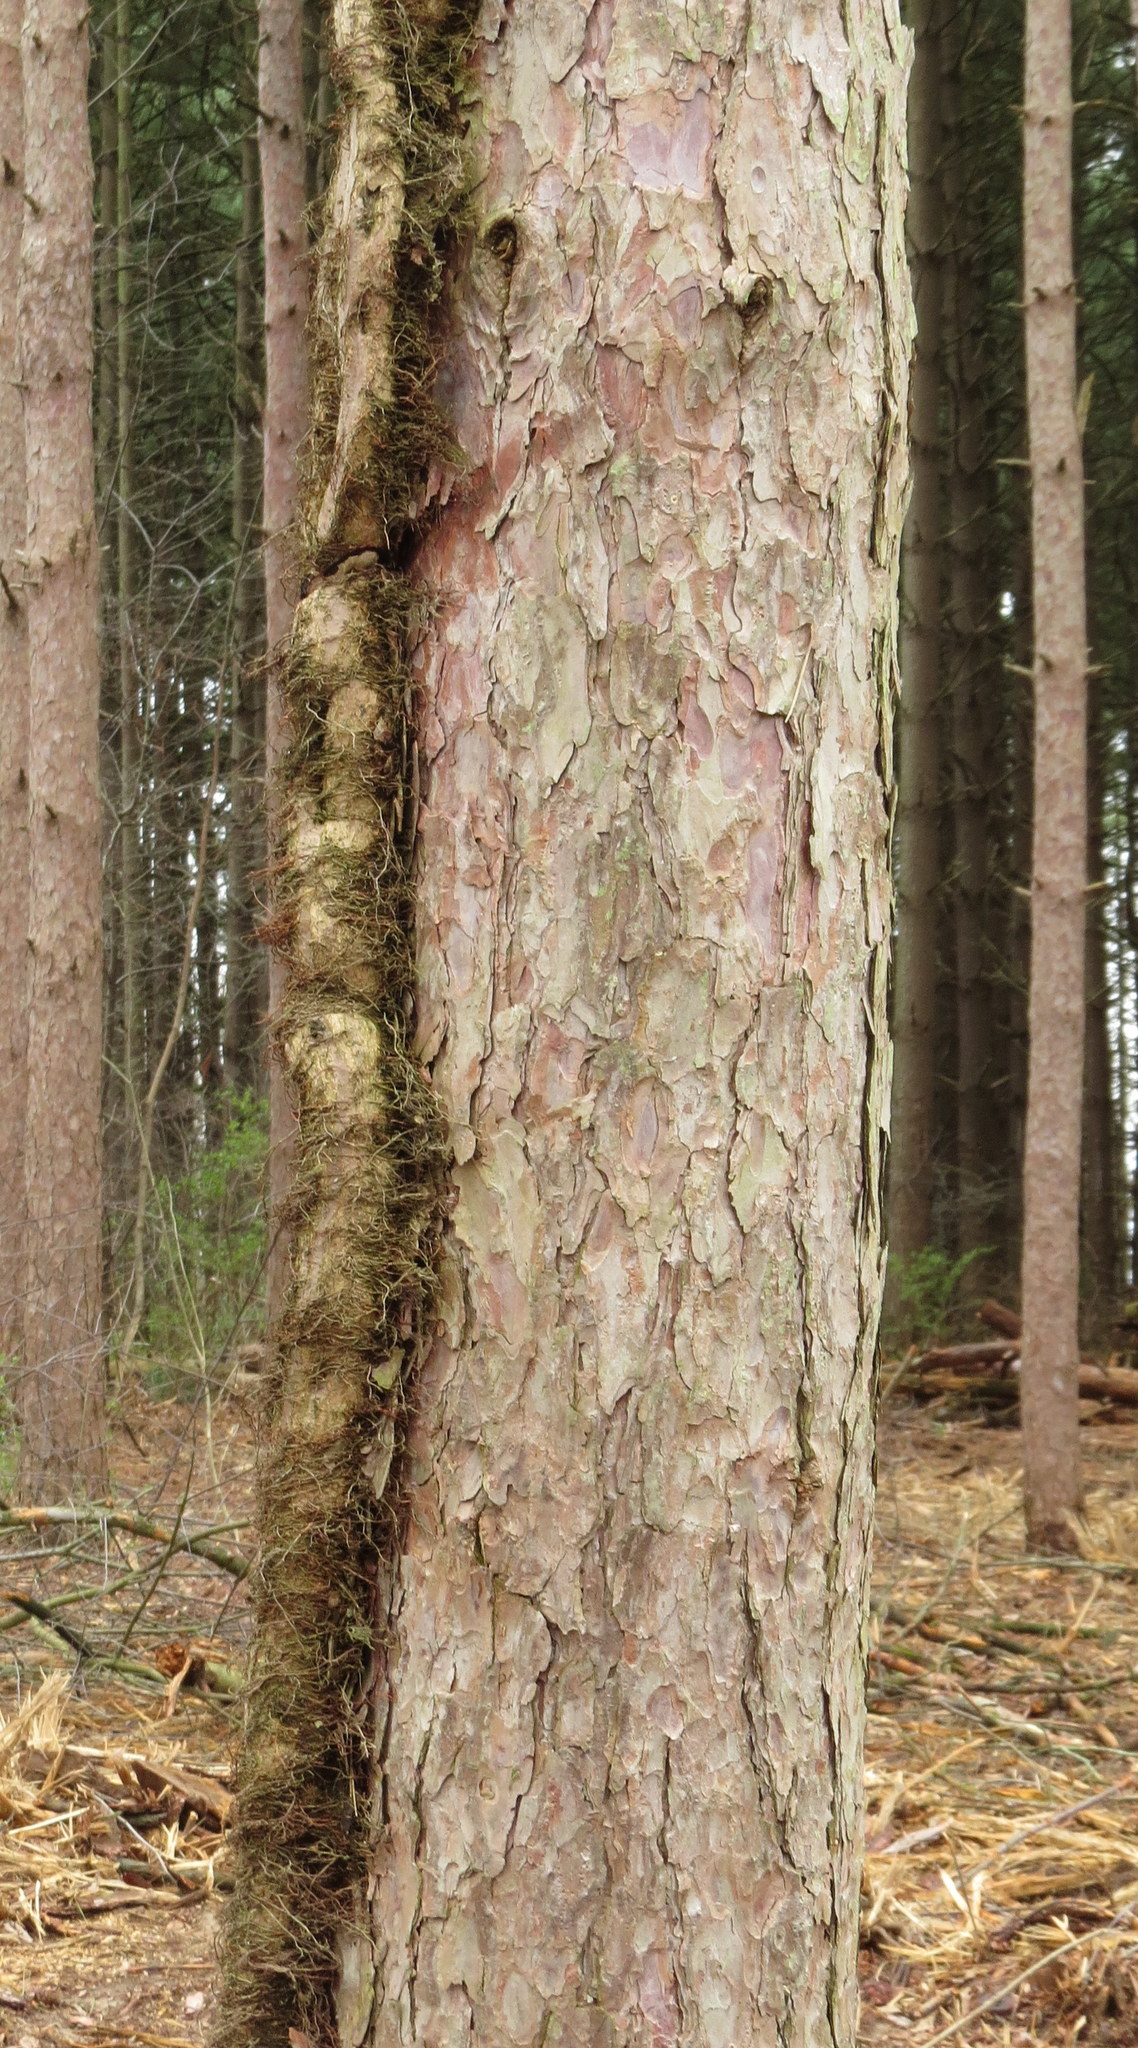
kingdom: Plantae
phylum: Tracheophyta
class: Magnoliopsida
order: Sapindales
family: Anacardiaceae
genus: Toxicodendron
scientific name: Toxicodendron radicans
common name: Poison ivy
